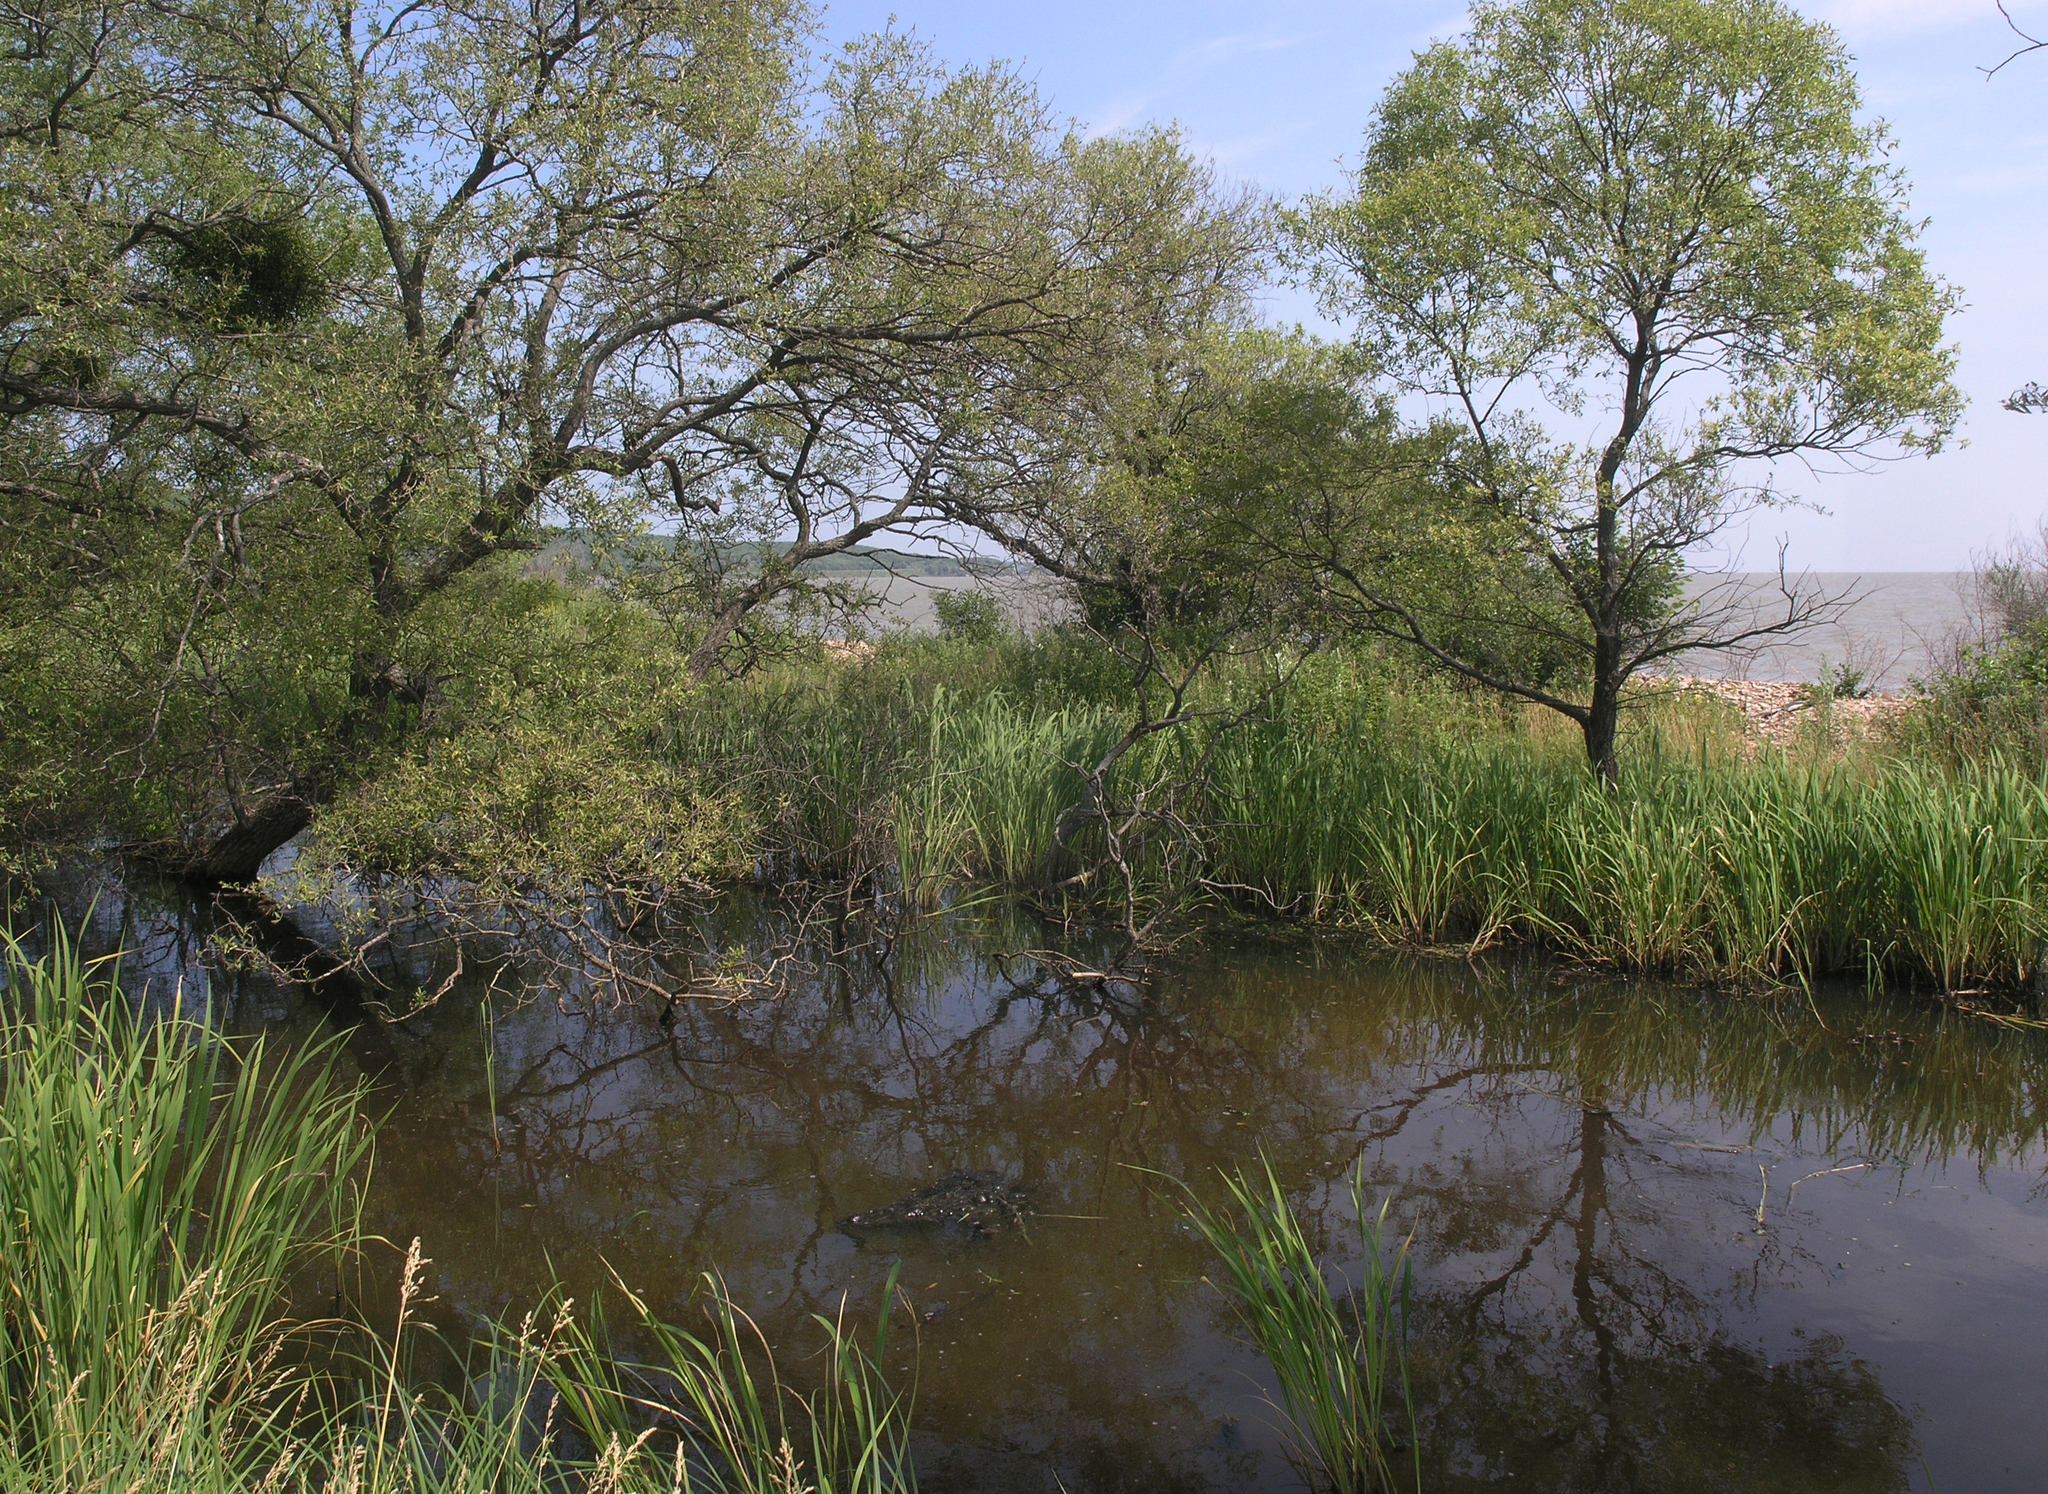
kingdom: Plantae
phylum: Tracheophyta
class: Magnoliopsida
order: Santalales
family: Viscaceae
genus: Viscum
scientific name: Viscum coloratum
